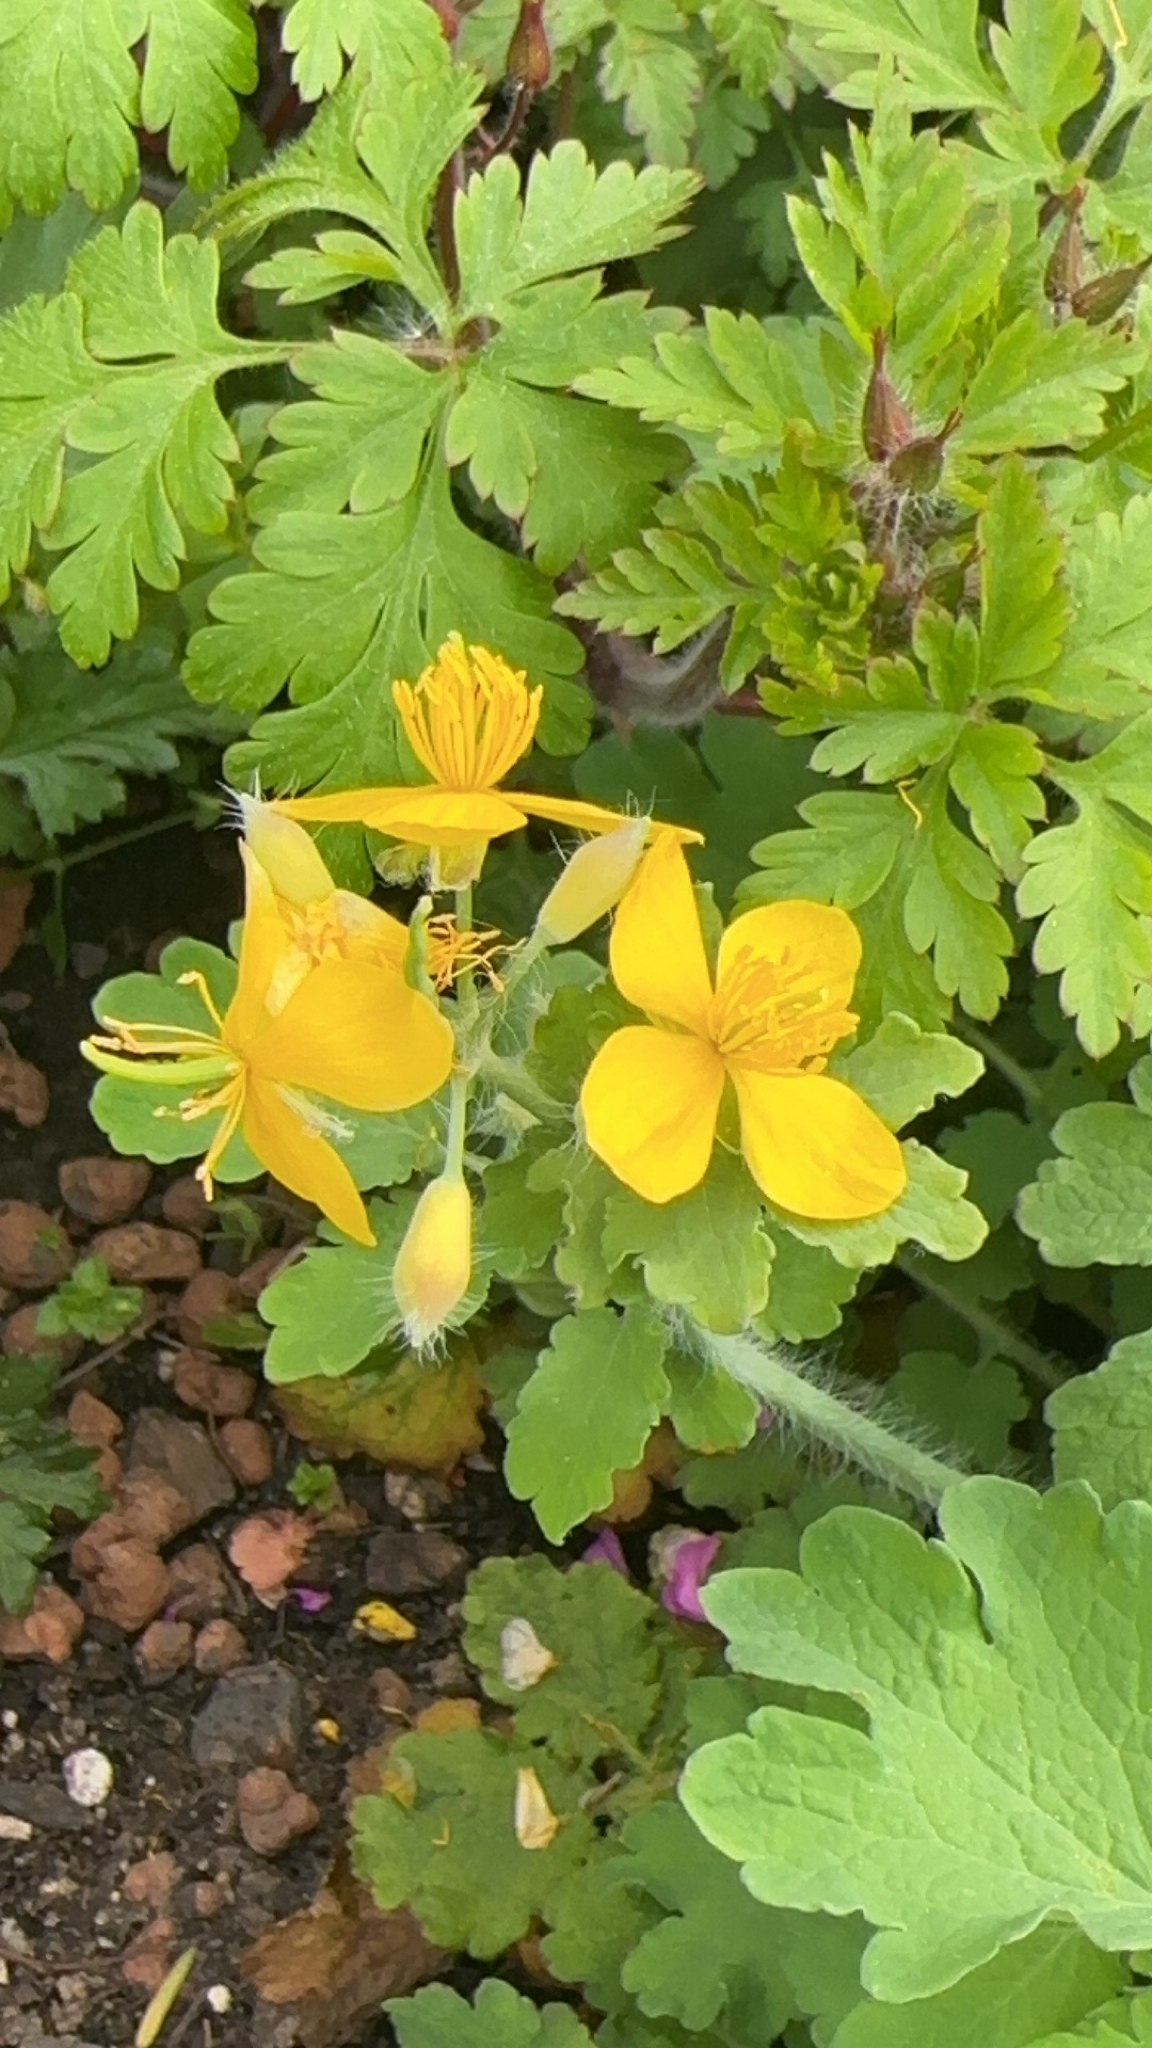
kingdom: Plantae
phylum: Tracheophyta
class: Magnoliopsida
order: Ranunculales
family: Papaveraceae
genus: Chelidonium
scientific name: Chelidonium majus
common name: Greater celandine
